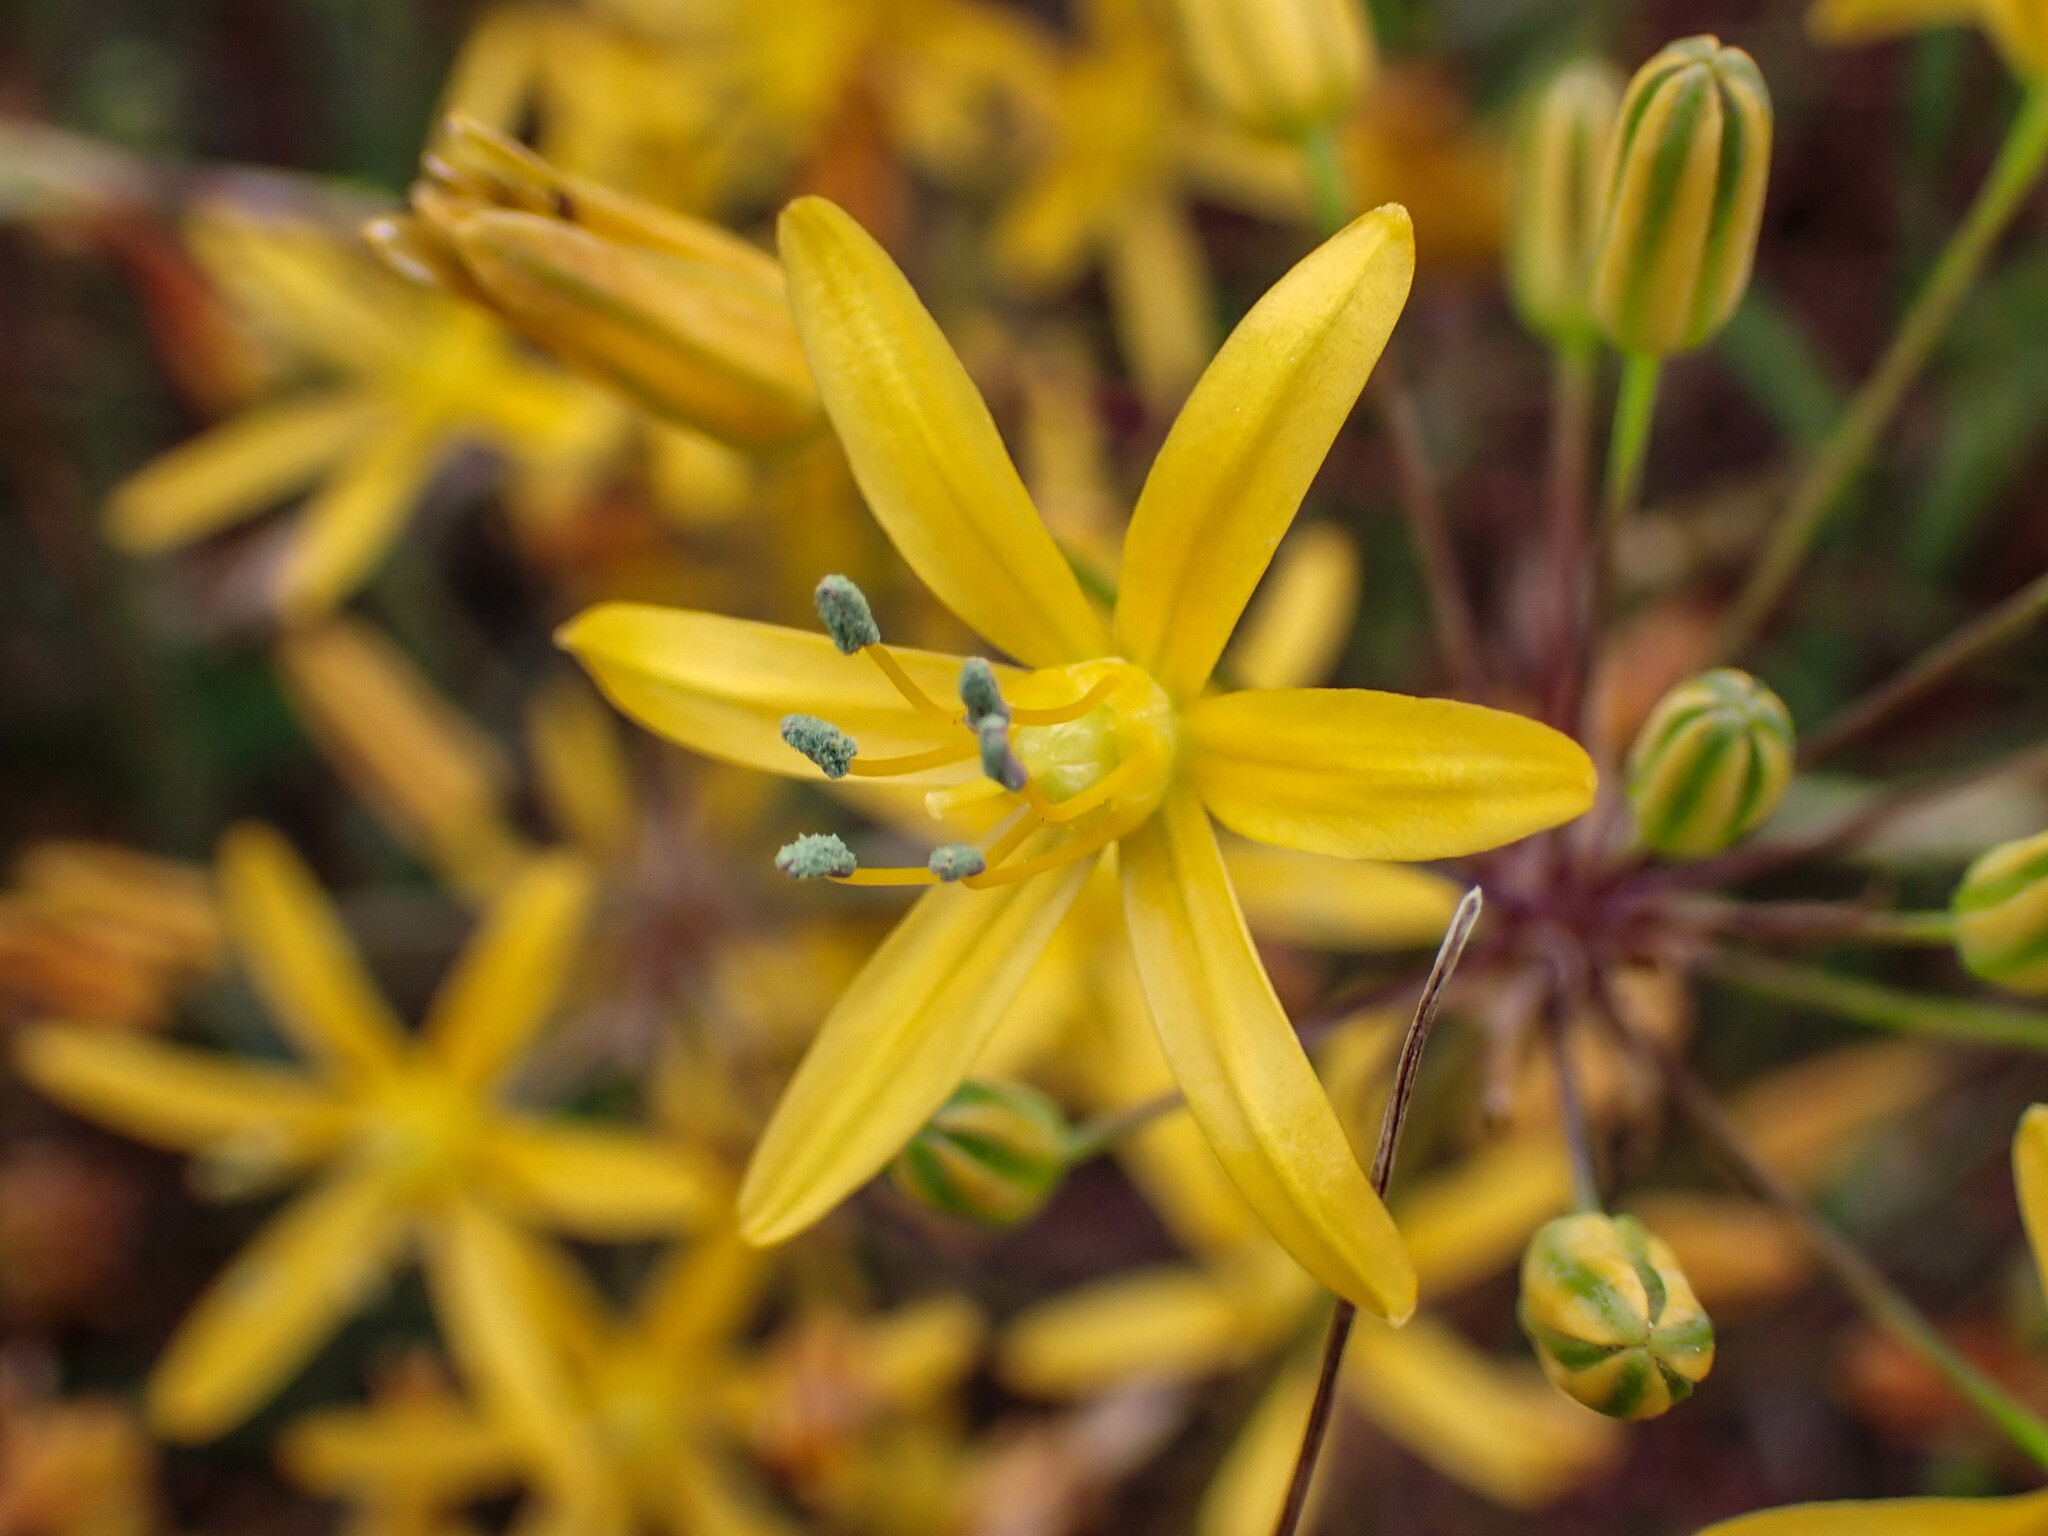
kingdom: Plantae
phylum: Tracheophyta
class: Liliopsida
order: Asparagales
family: Asparagaceae
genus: Bloomeria
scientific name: Bloomeria crocea
